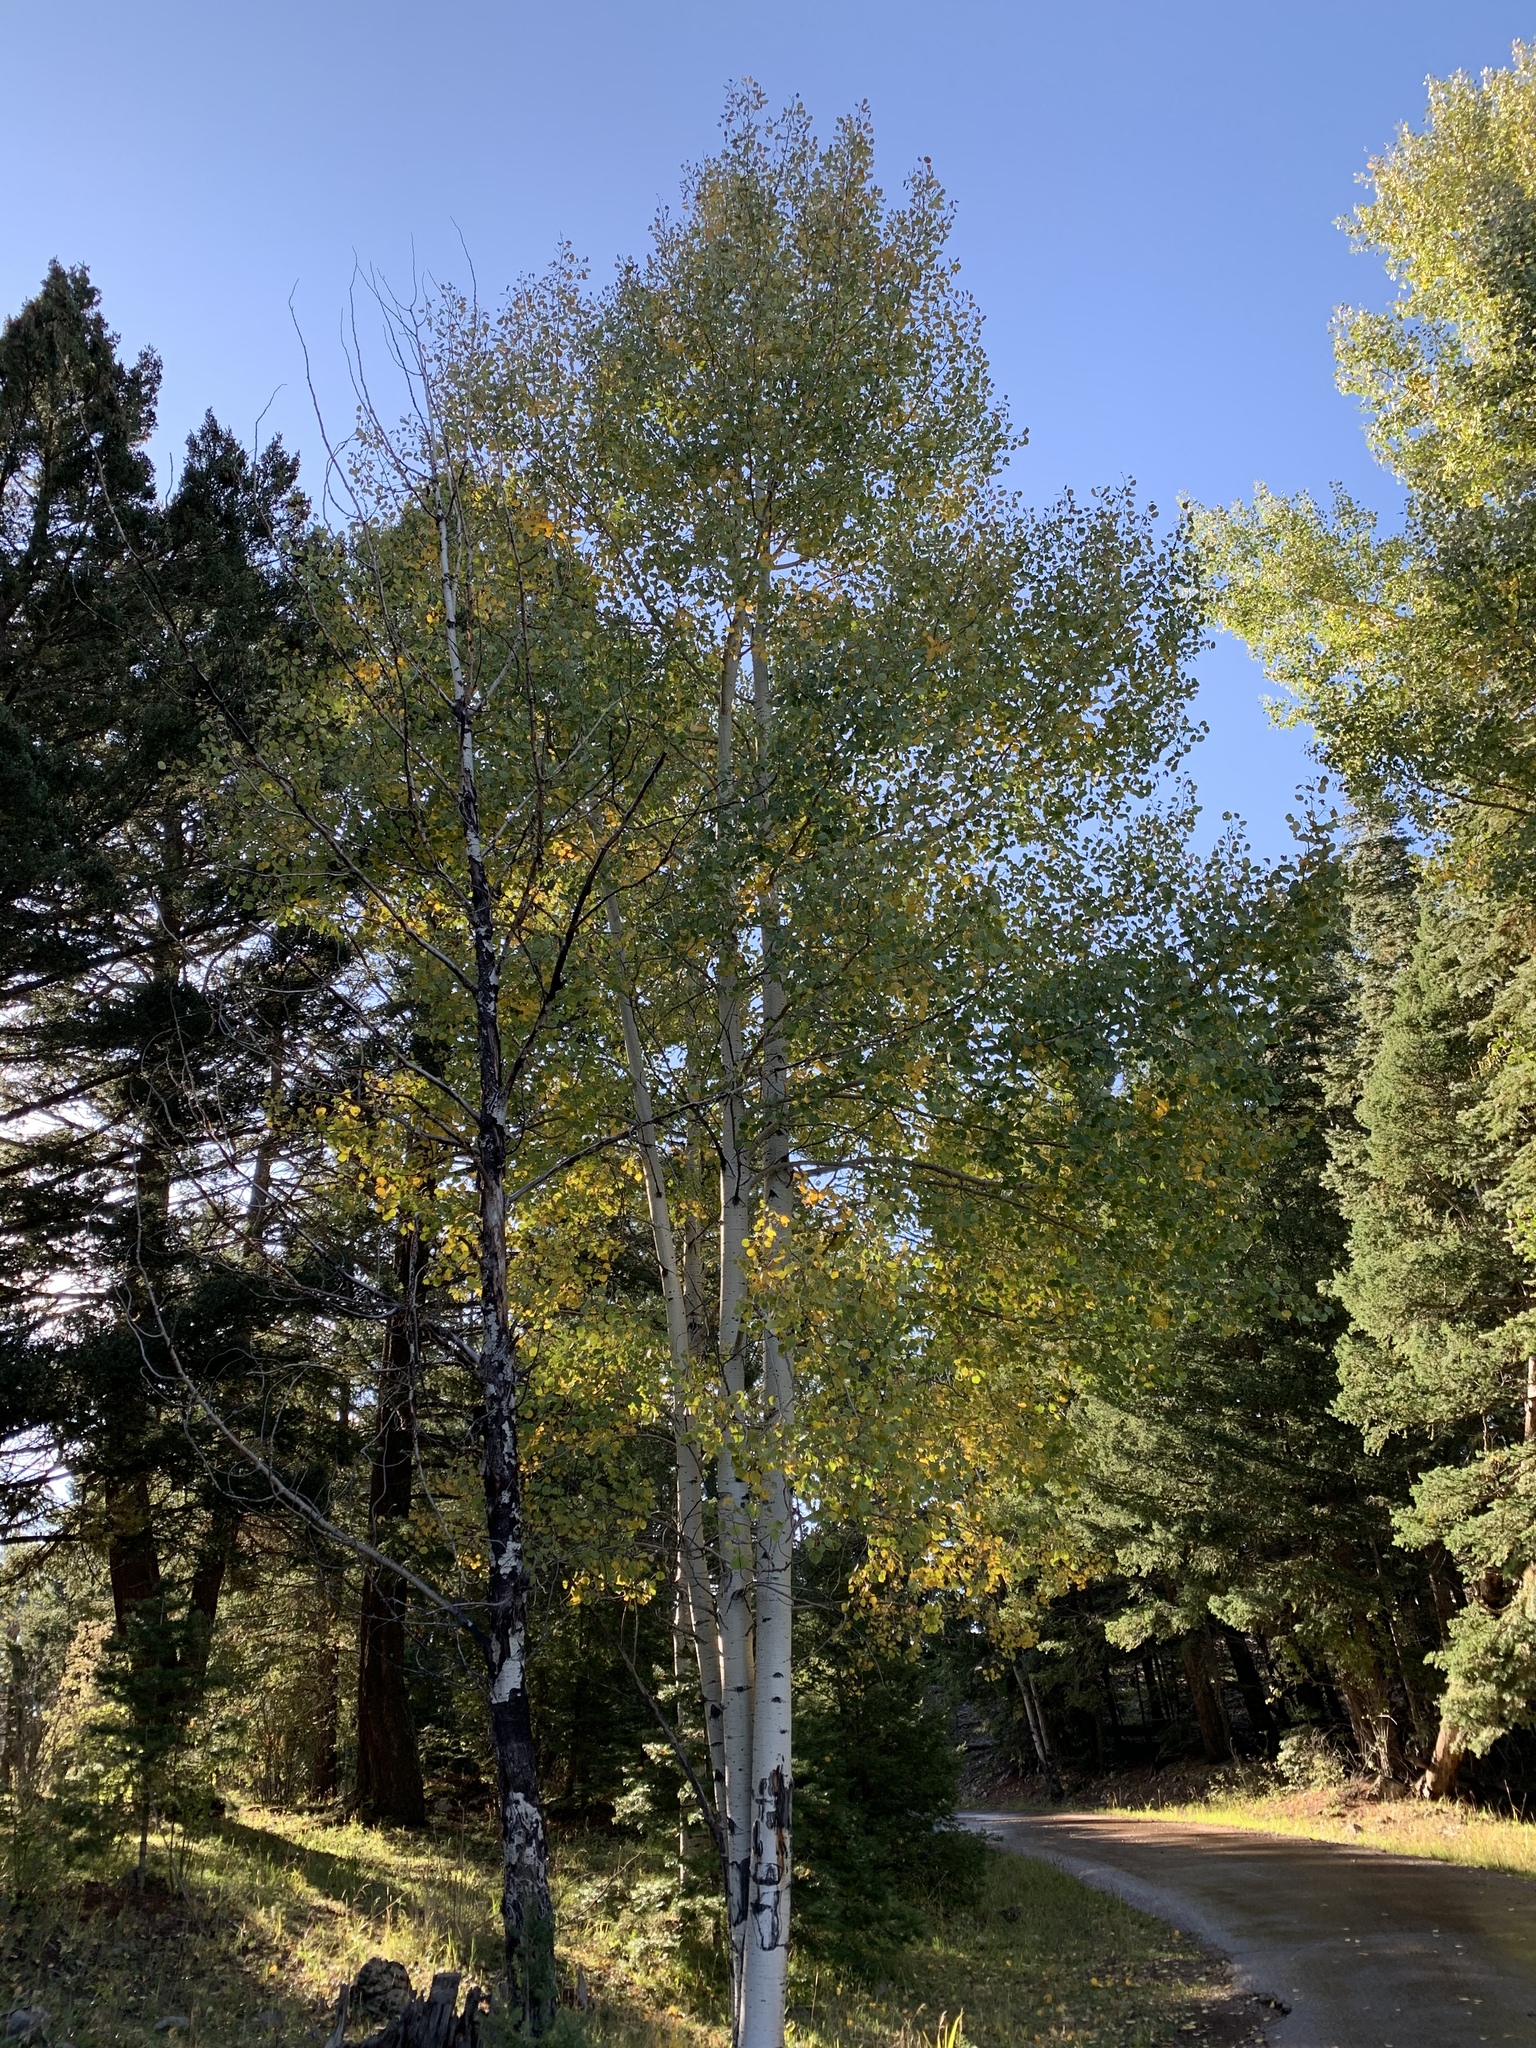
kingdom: Plantae
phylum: Tracheophyta
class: Magnoliopsida
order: Malpighiales
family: Salicaceae
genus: Populus
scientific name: Populus tremuloides
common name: Quaking aspen
